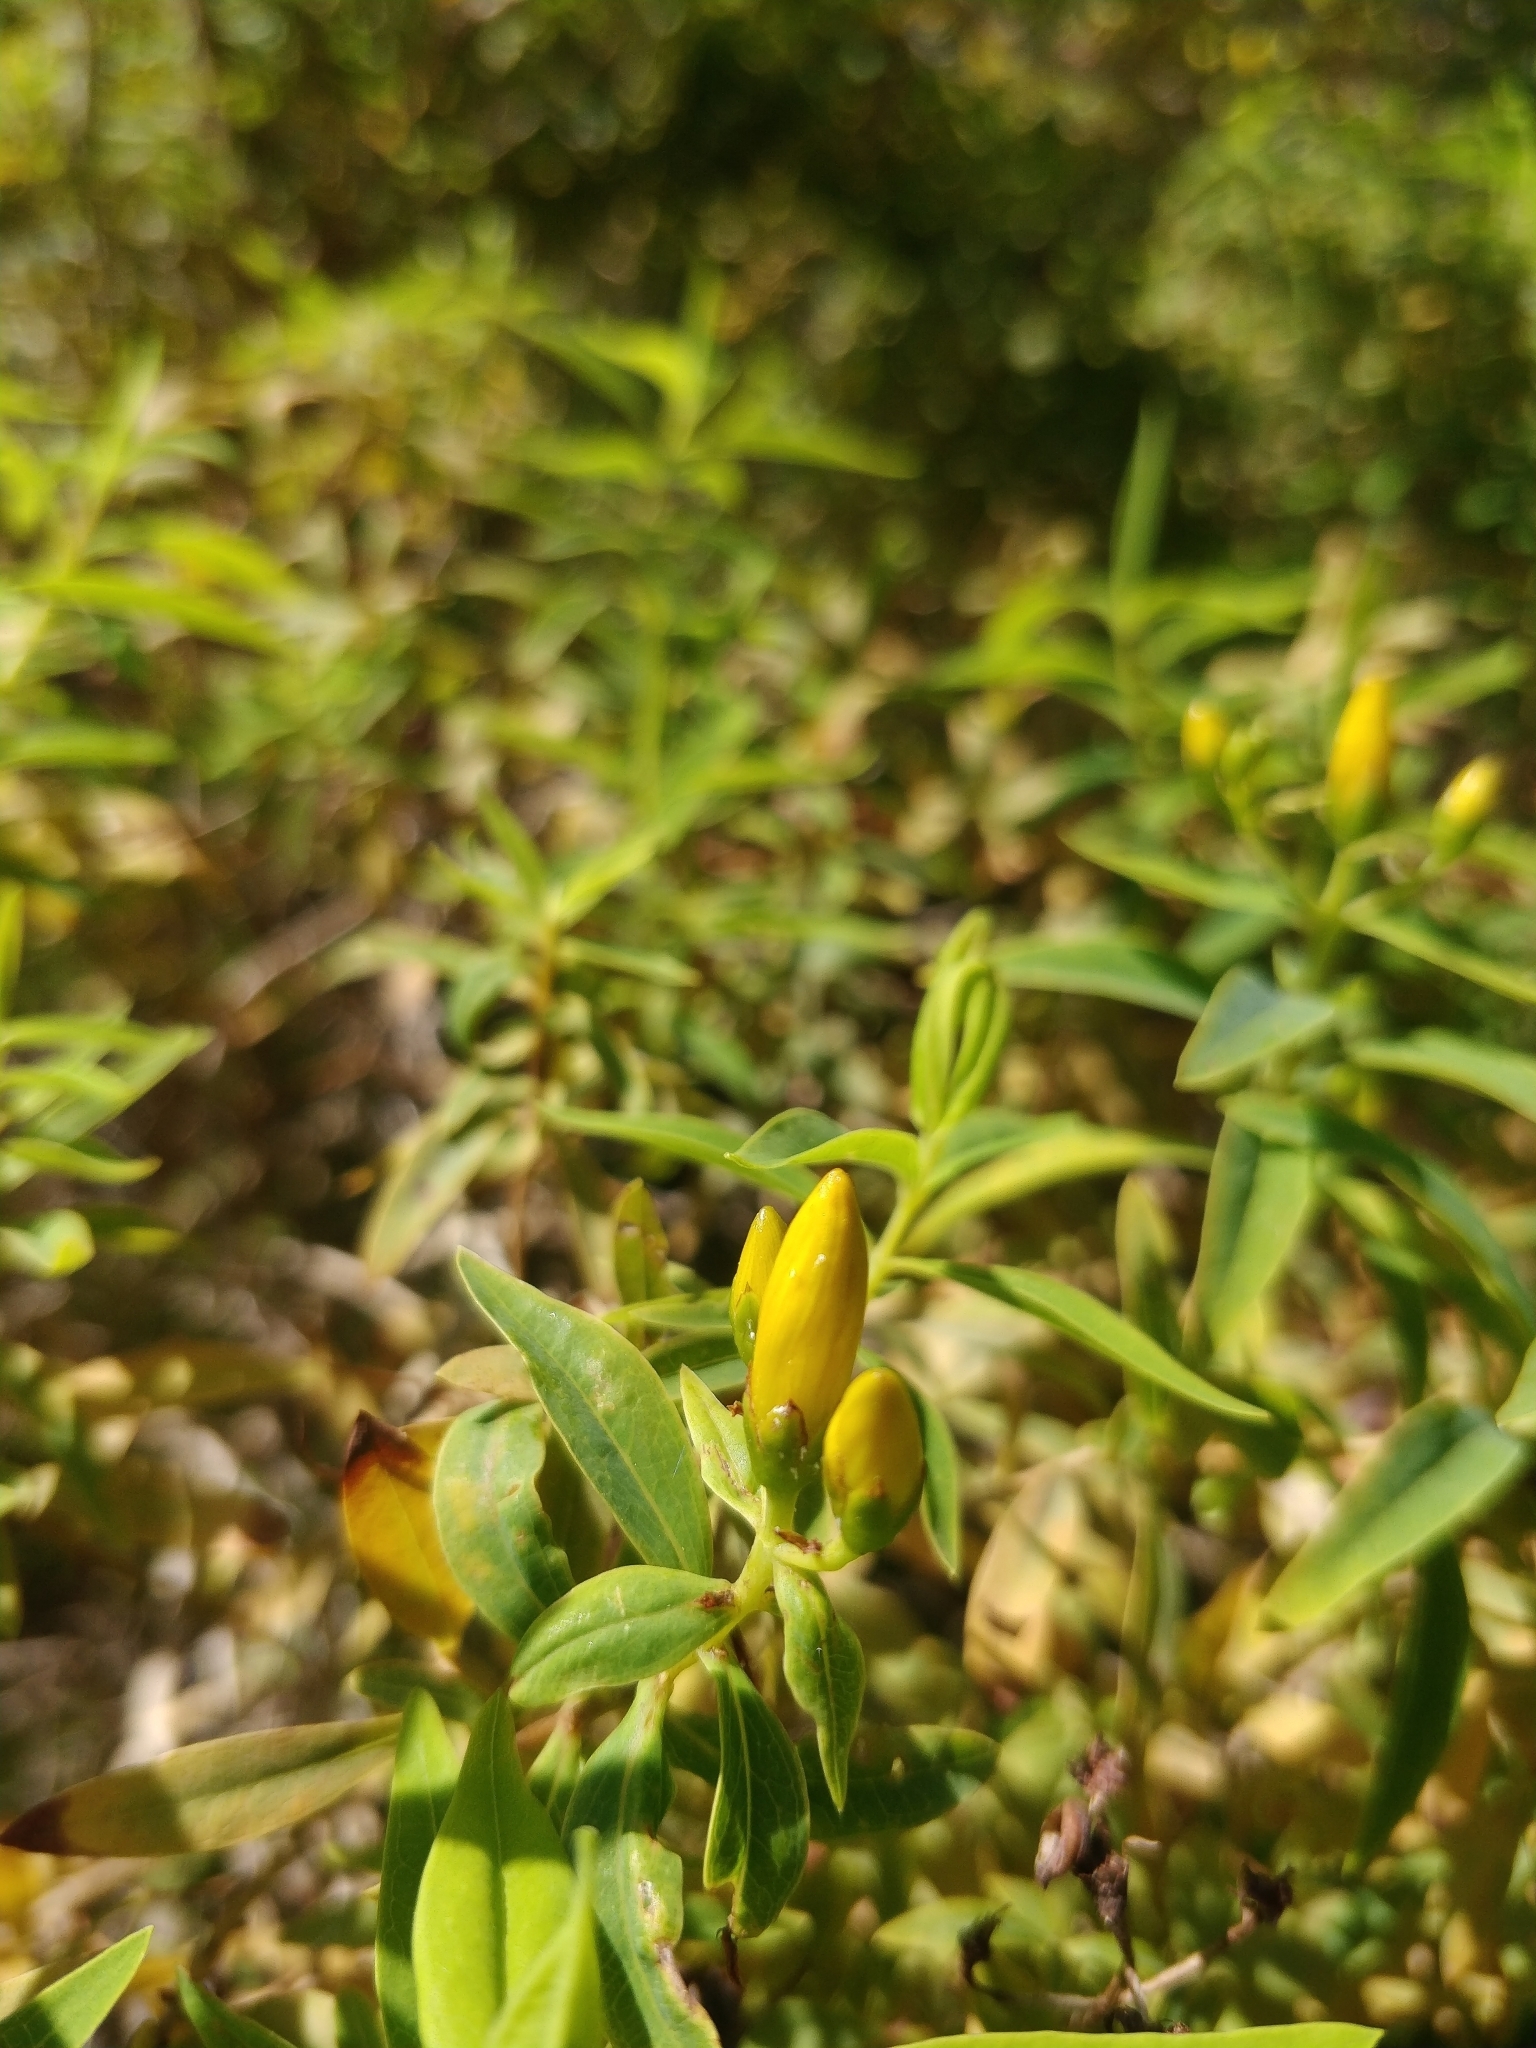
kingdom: Plantae
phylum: Tracheophyta
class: Magnoliopsida
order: Malpighiales
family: Hypericaceae
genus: Hypericum
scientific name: Hypericum canariense
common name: Canary island st. johnswort
